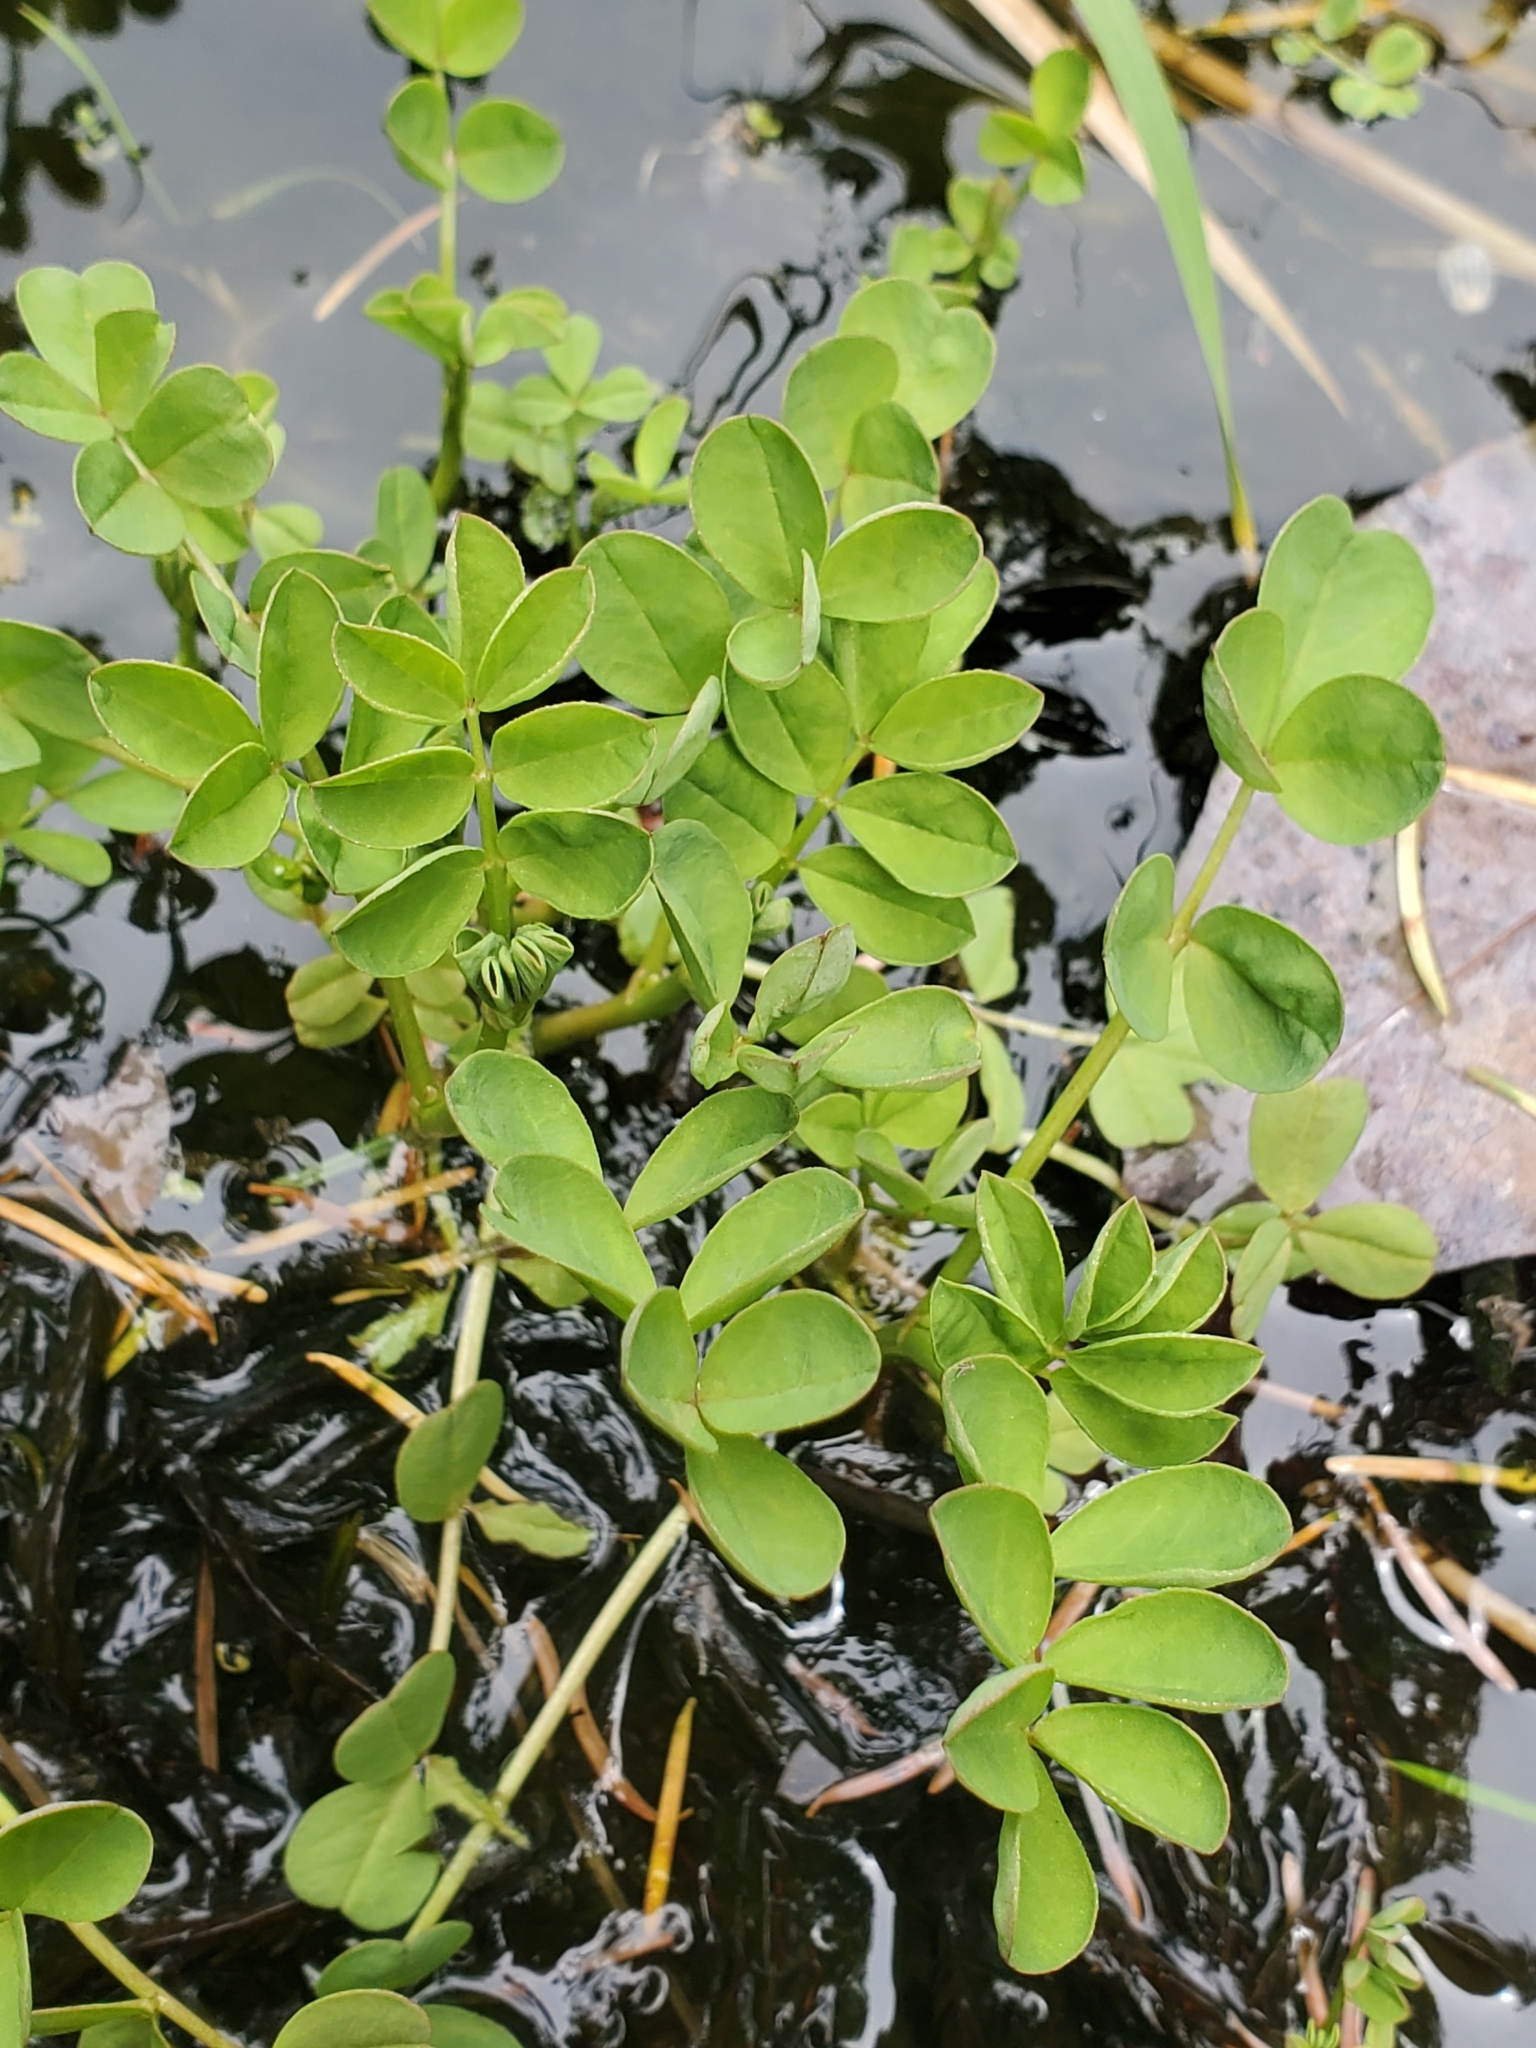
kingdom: Plantae
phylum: Tracheophyta
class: Magnoliopsida
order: Fabales
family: Fabaceae
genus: Hosackia
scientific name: Hosackia pinnata
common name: Bog bird's-foot trefoil
